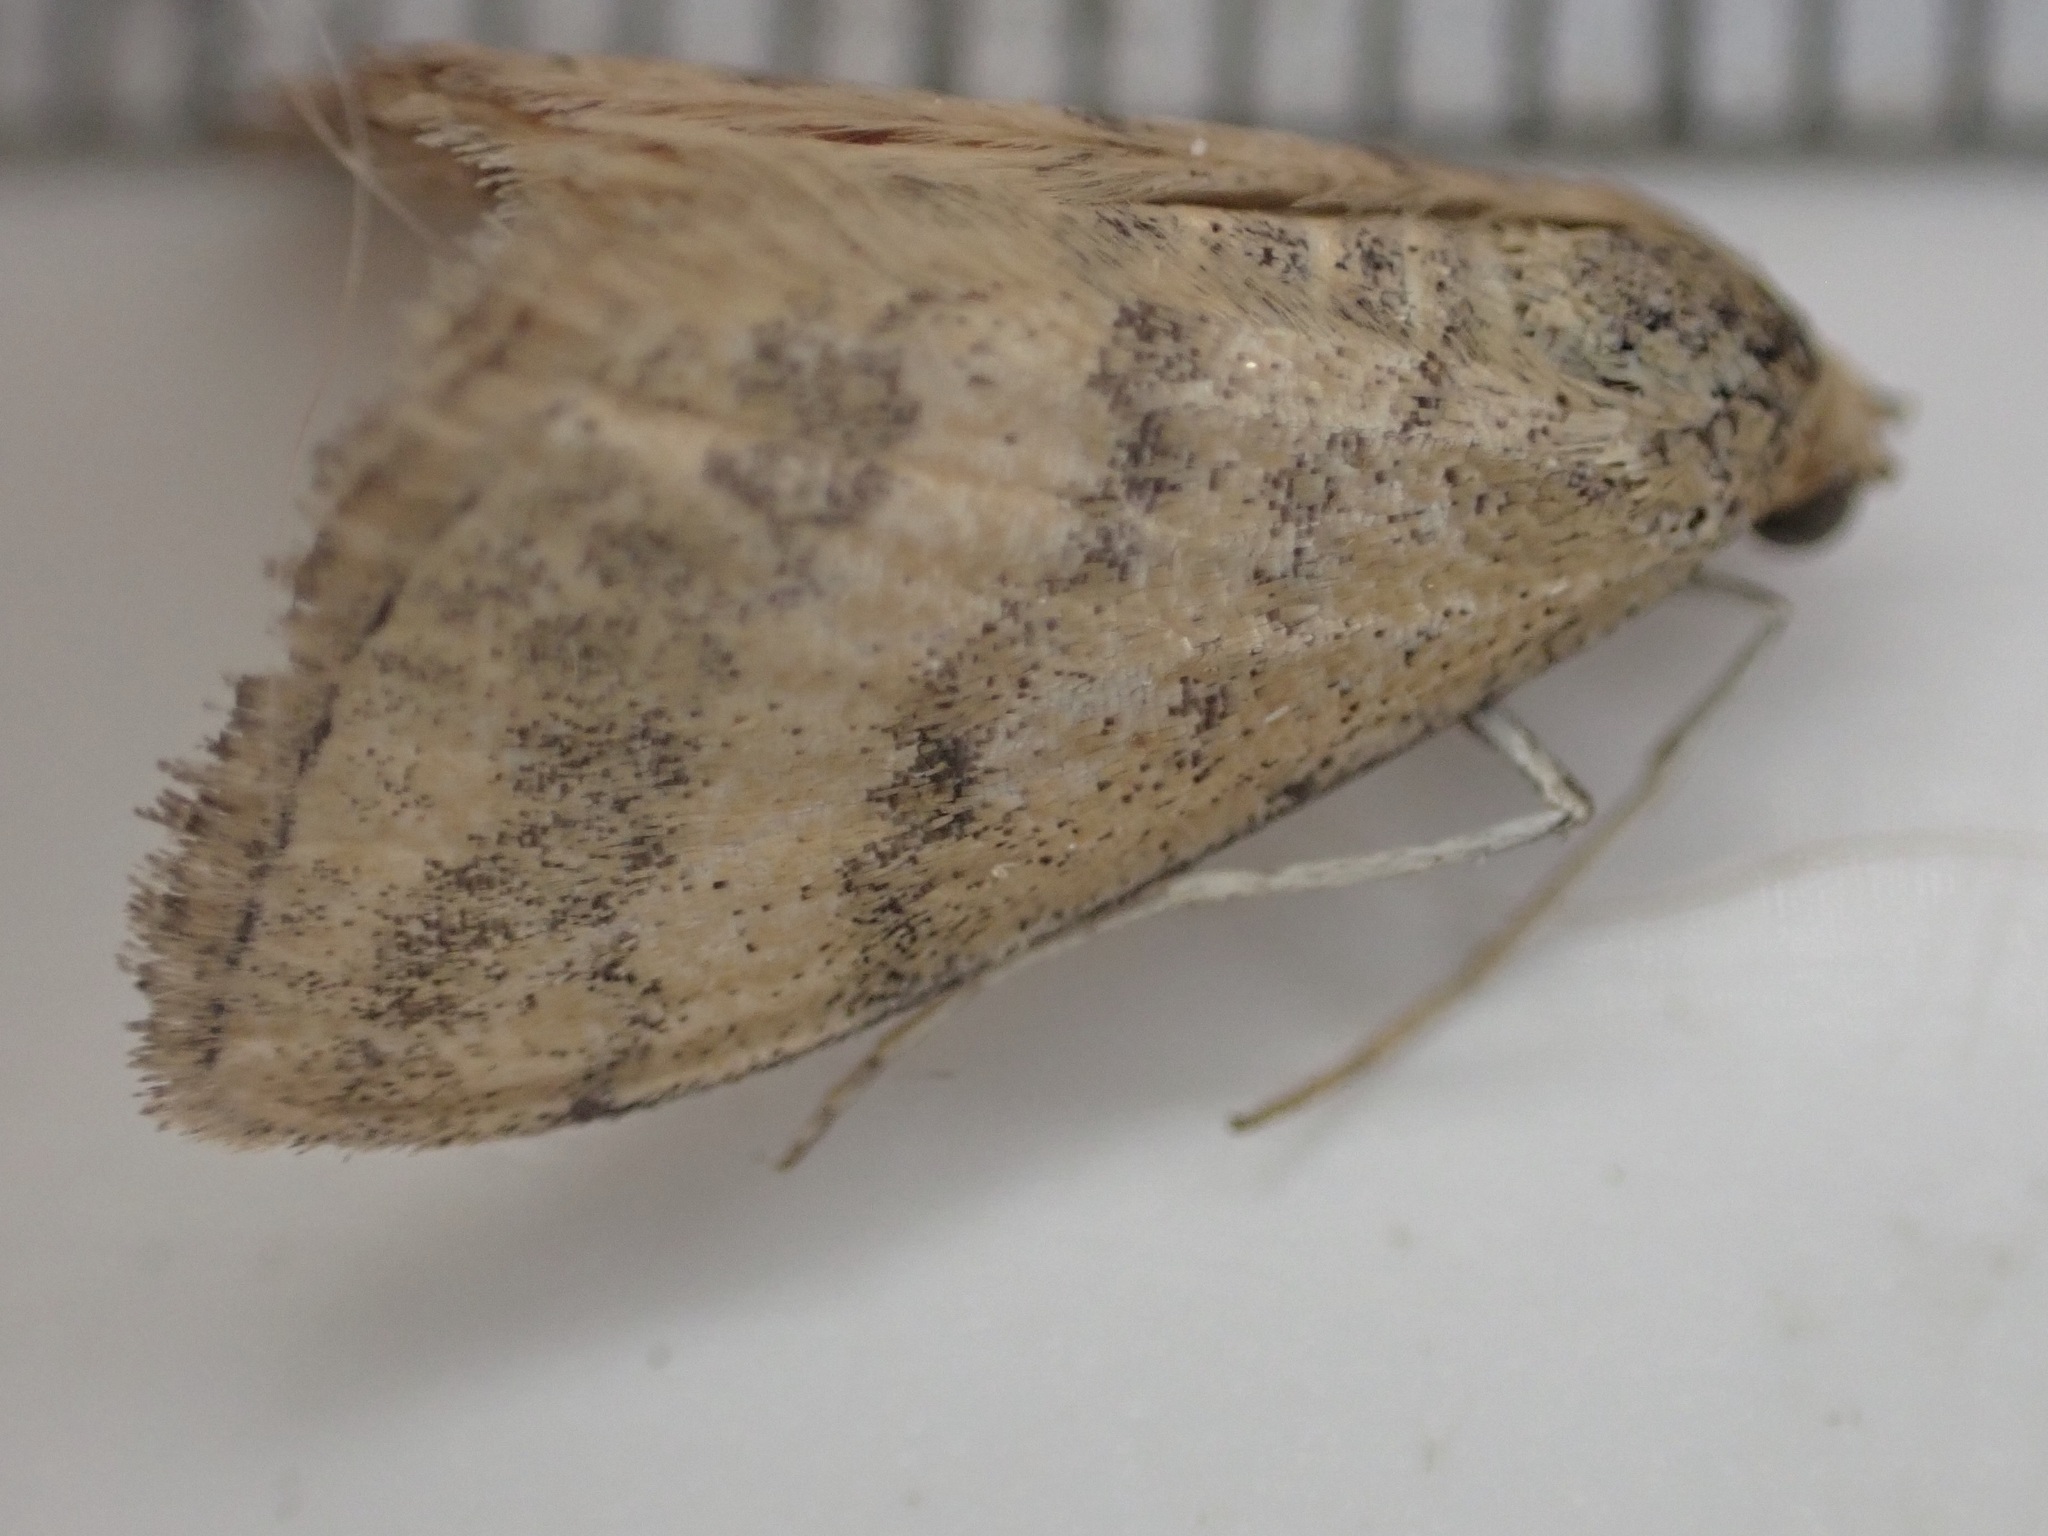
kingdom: Animalia
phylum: Arthropoda
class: Insecta
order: Lepidoptera
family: Geometridae
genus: Scopula
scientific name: Scopula rubraria
